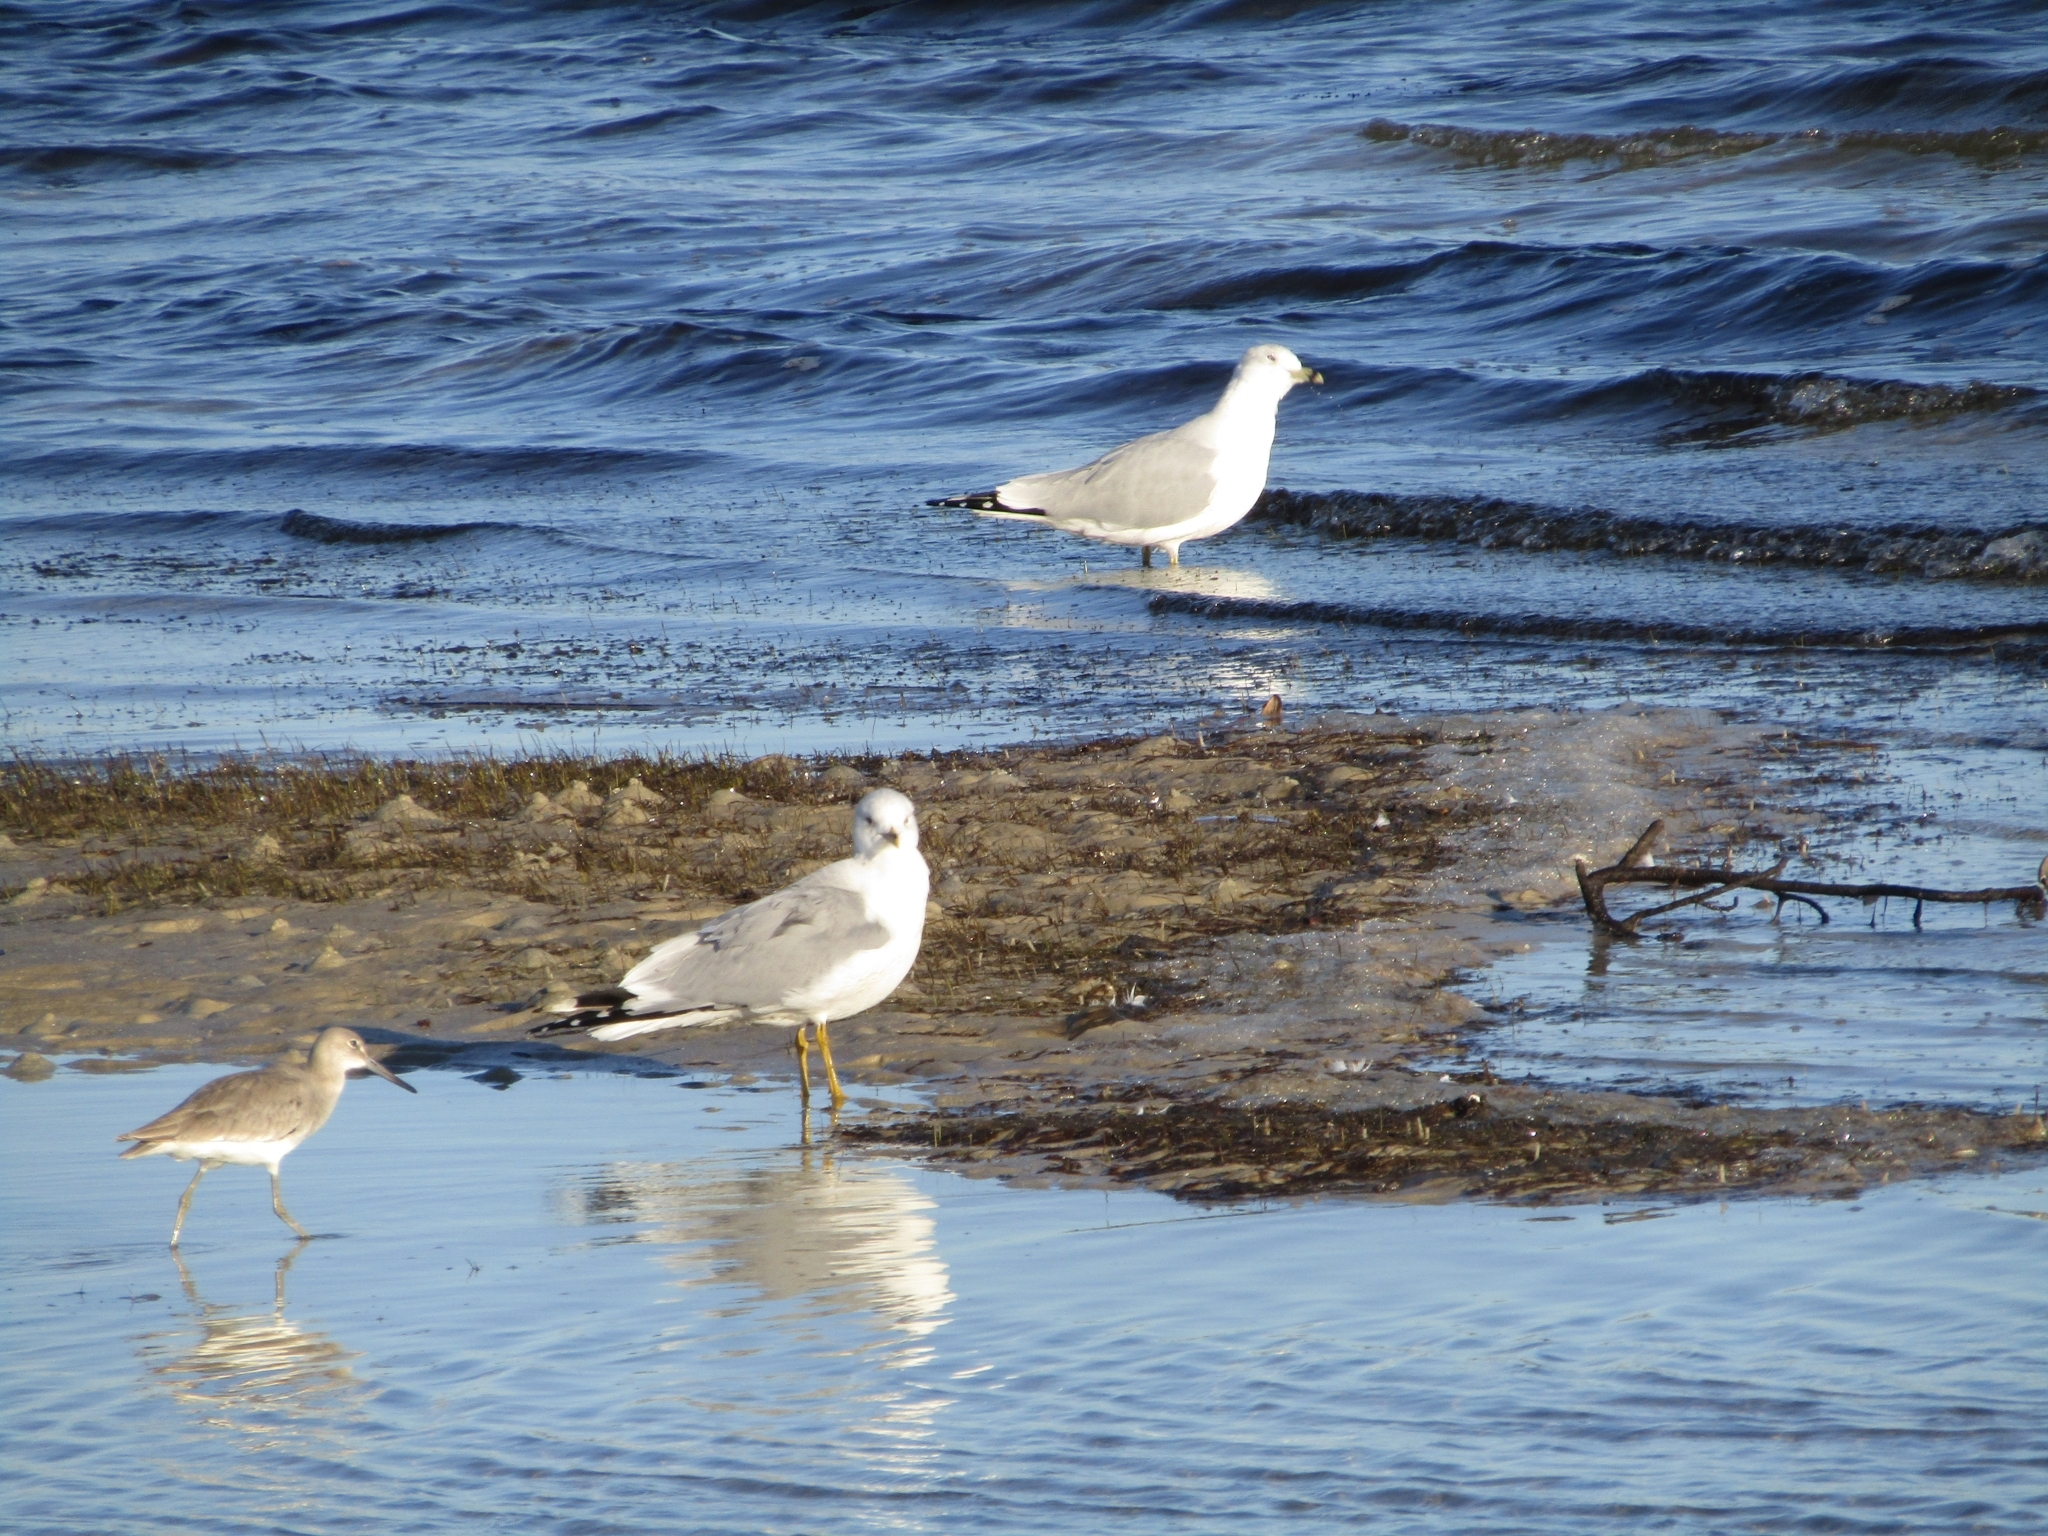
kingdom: Animalia
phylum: Chordata
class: Aves
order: Charadriiformes
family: Laridae
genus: Larus
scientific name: Larus delawarensis
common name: Ring-billed gull
